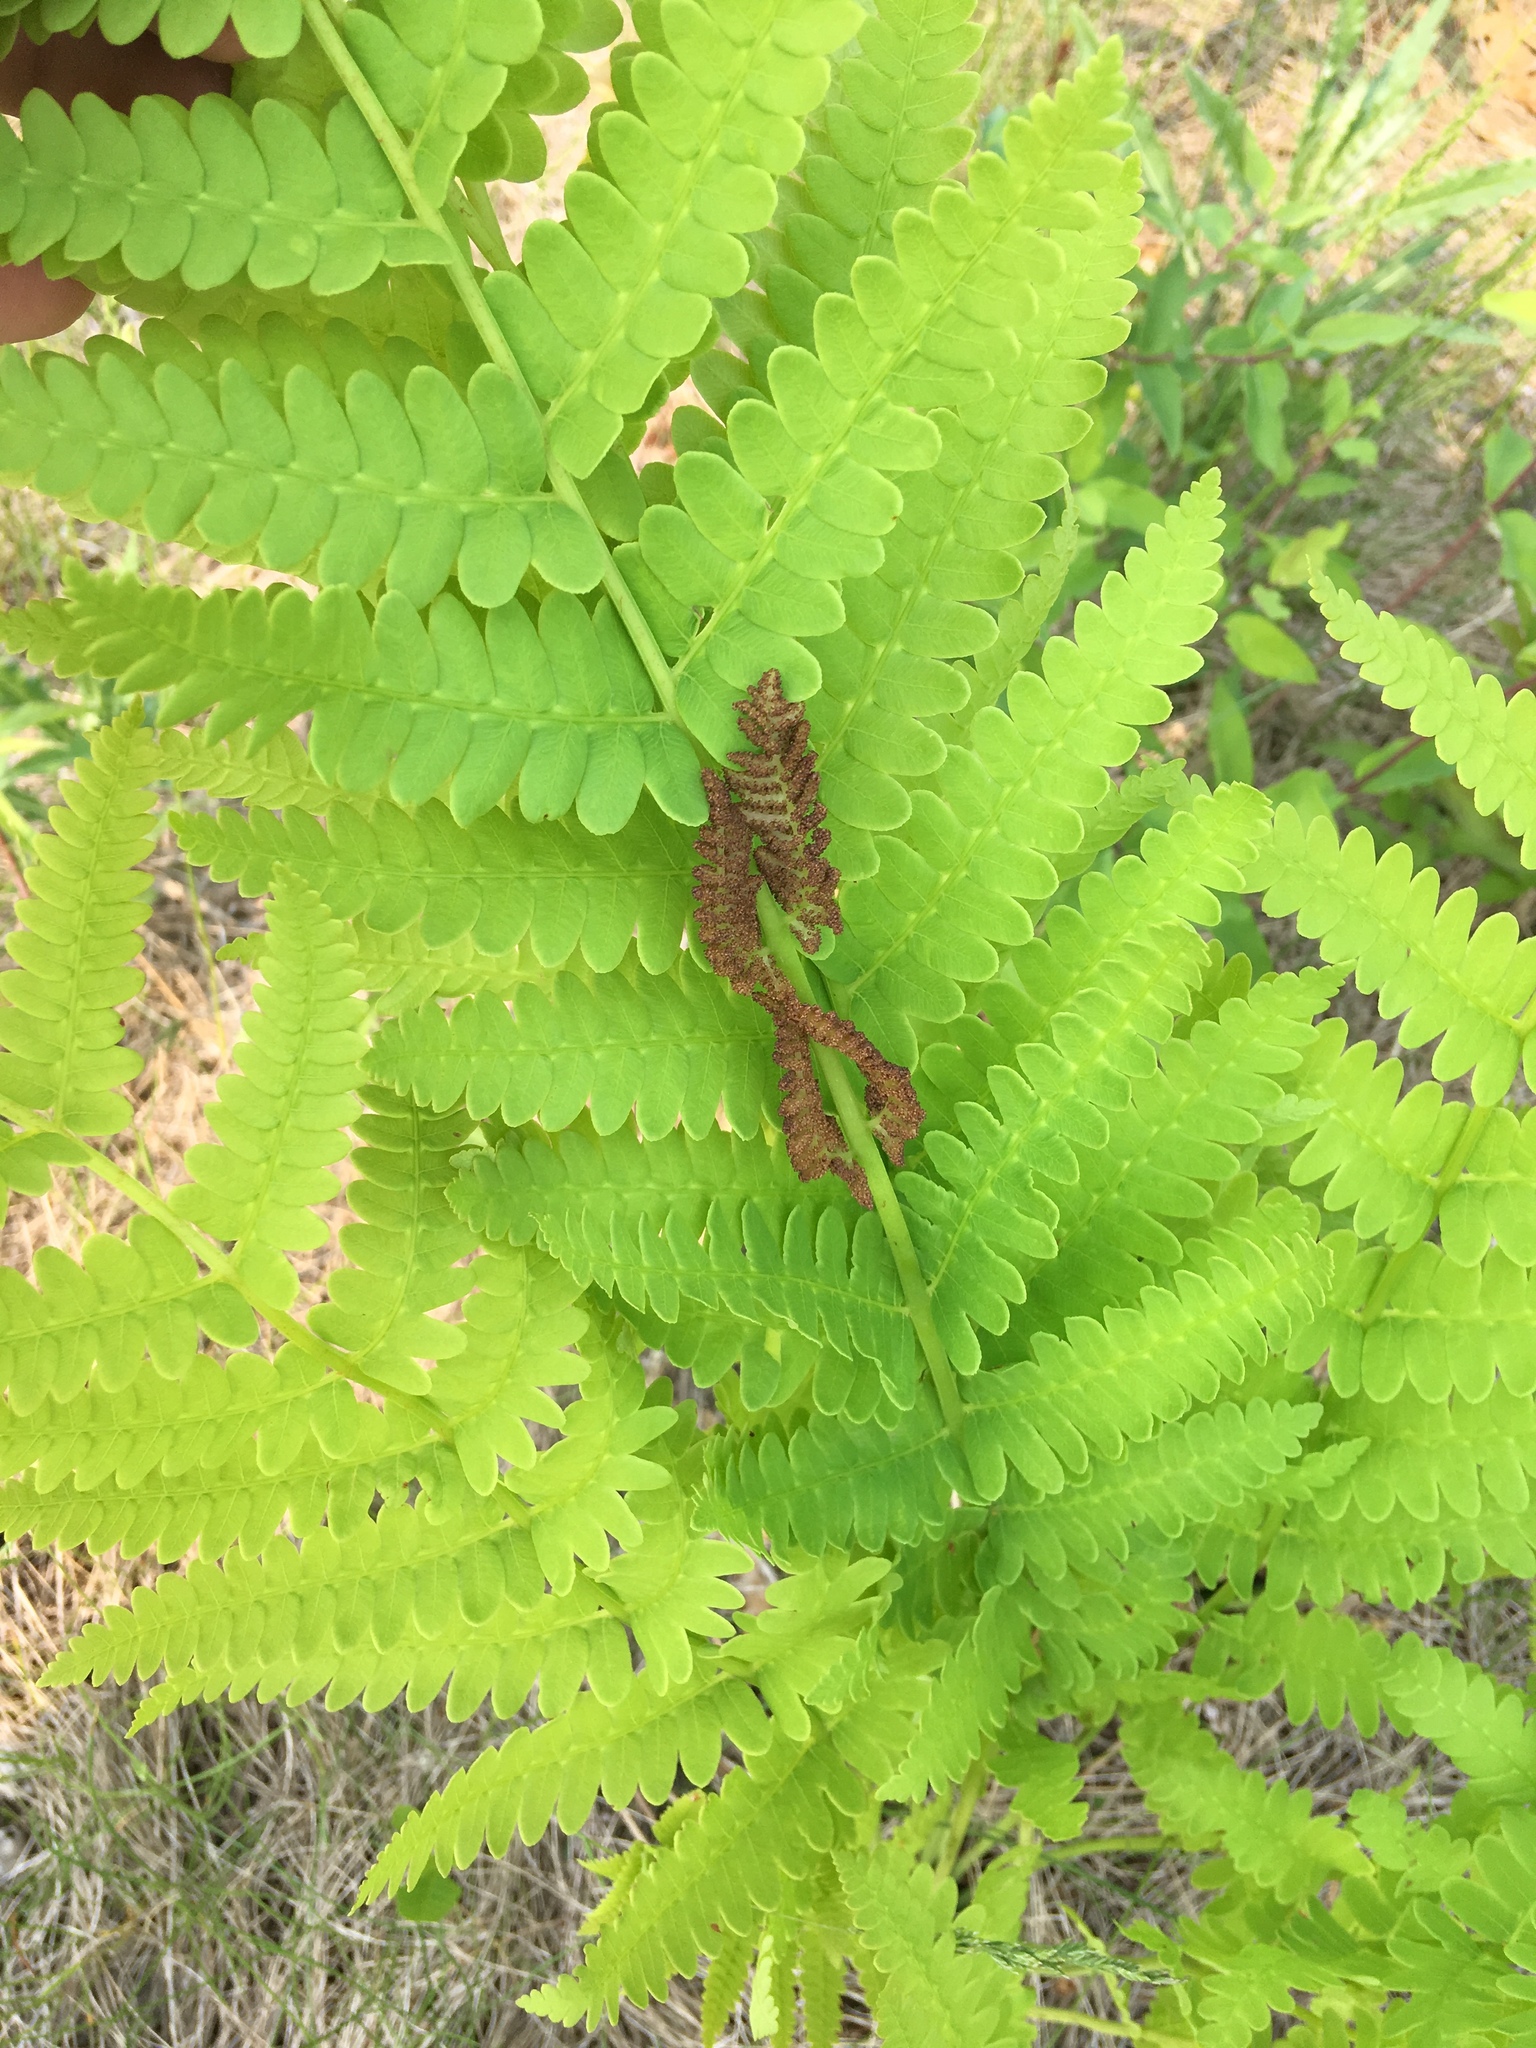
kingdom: Plantae
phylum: Tracheophyta
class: Polypodiopsida
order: Osmundales
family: Osmundaceae
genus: Claytosmunda
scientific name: Claytosmunda claytoniana
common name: Clayton's fern
